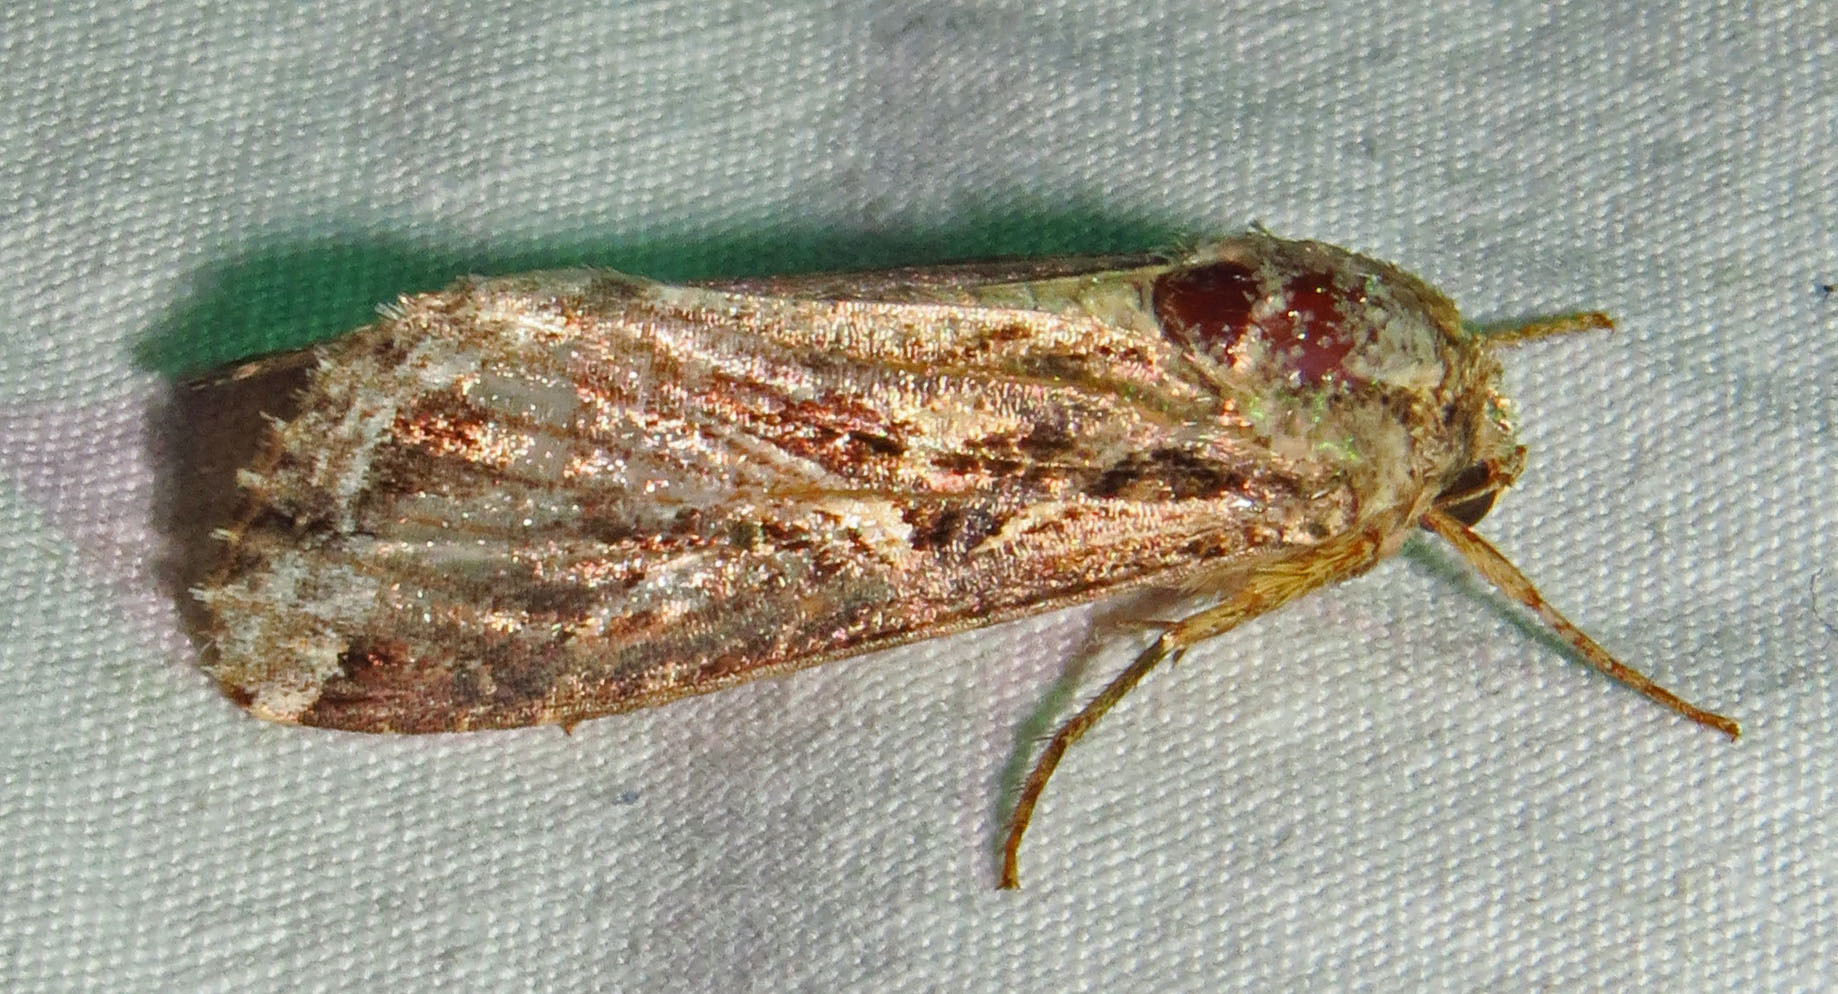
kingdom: Animalia
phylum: Arthropoda
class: Insecta
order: Lepidoptera
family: Noctuidae
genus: Spodoptera
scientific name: Spodoptera ornithogalli
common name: Yellow-striped armyworm
